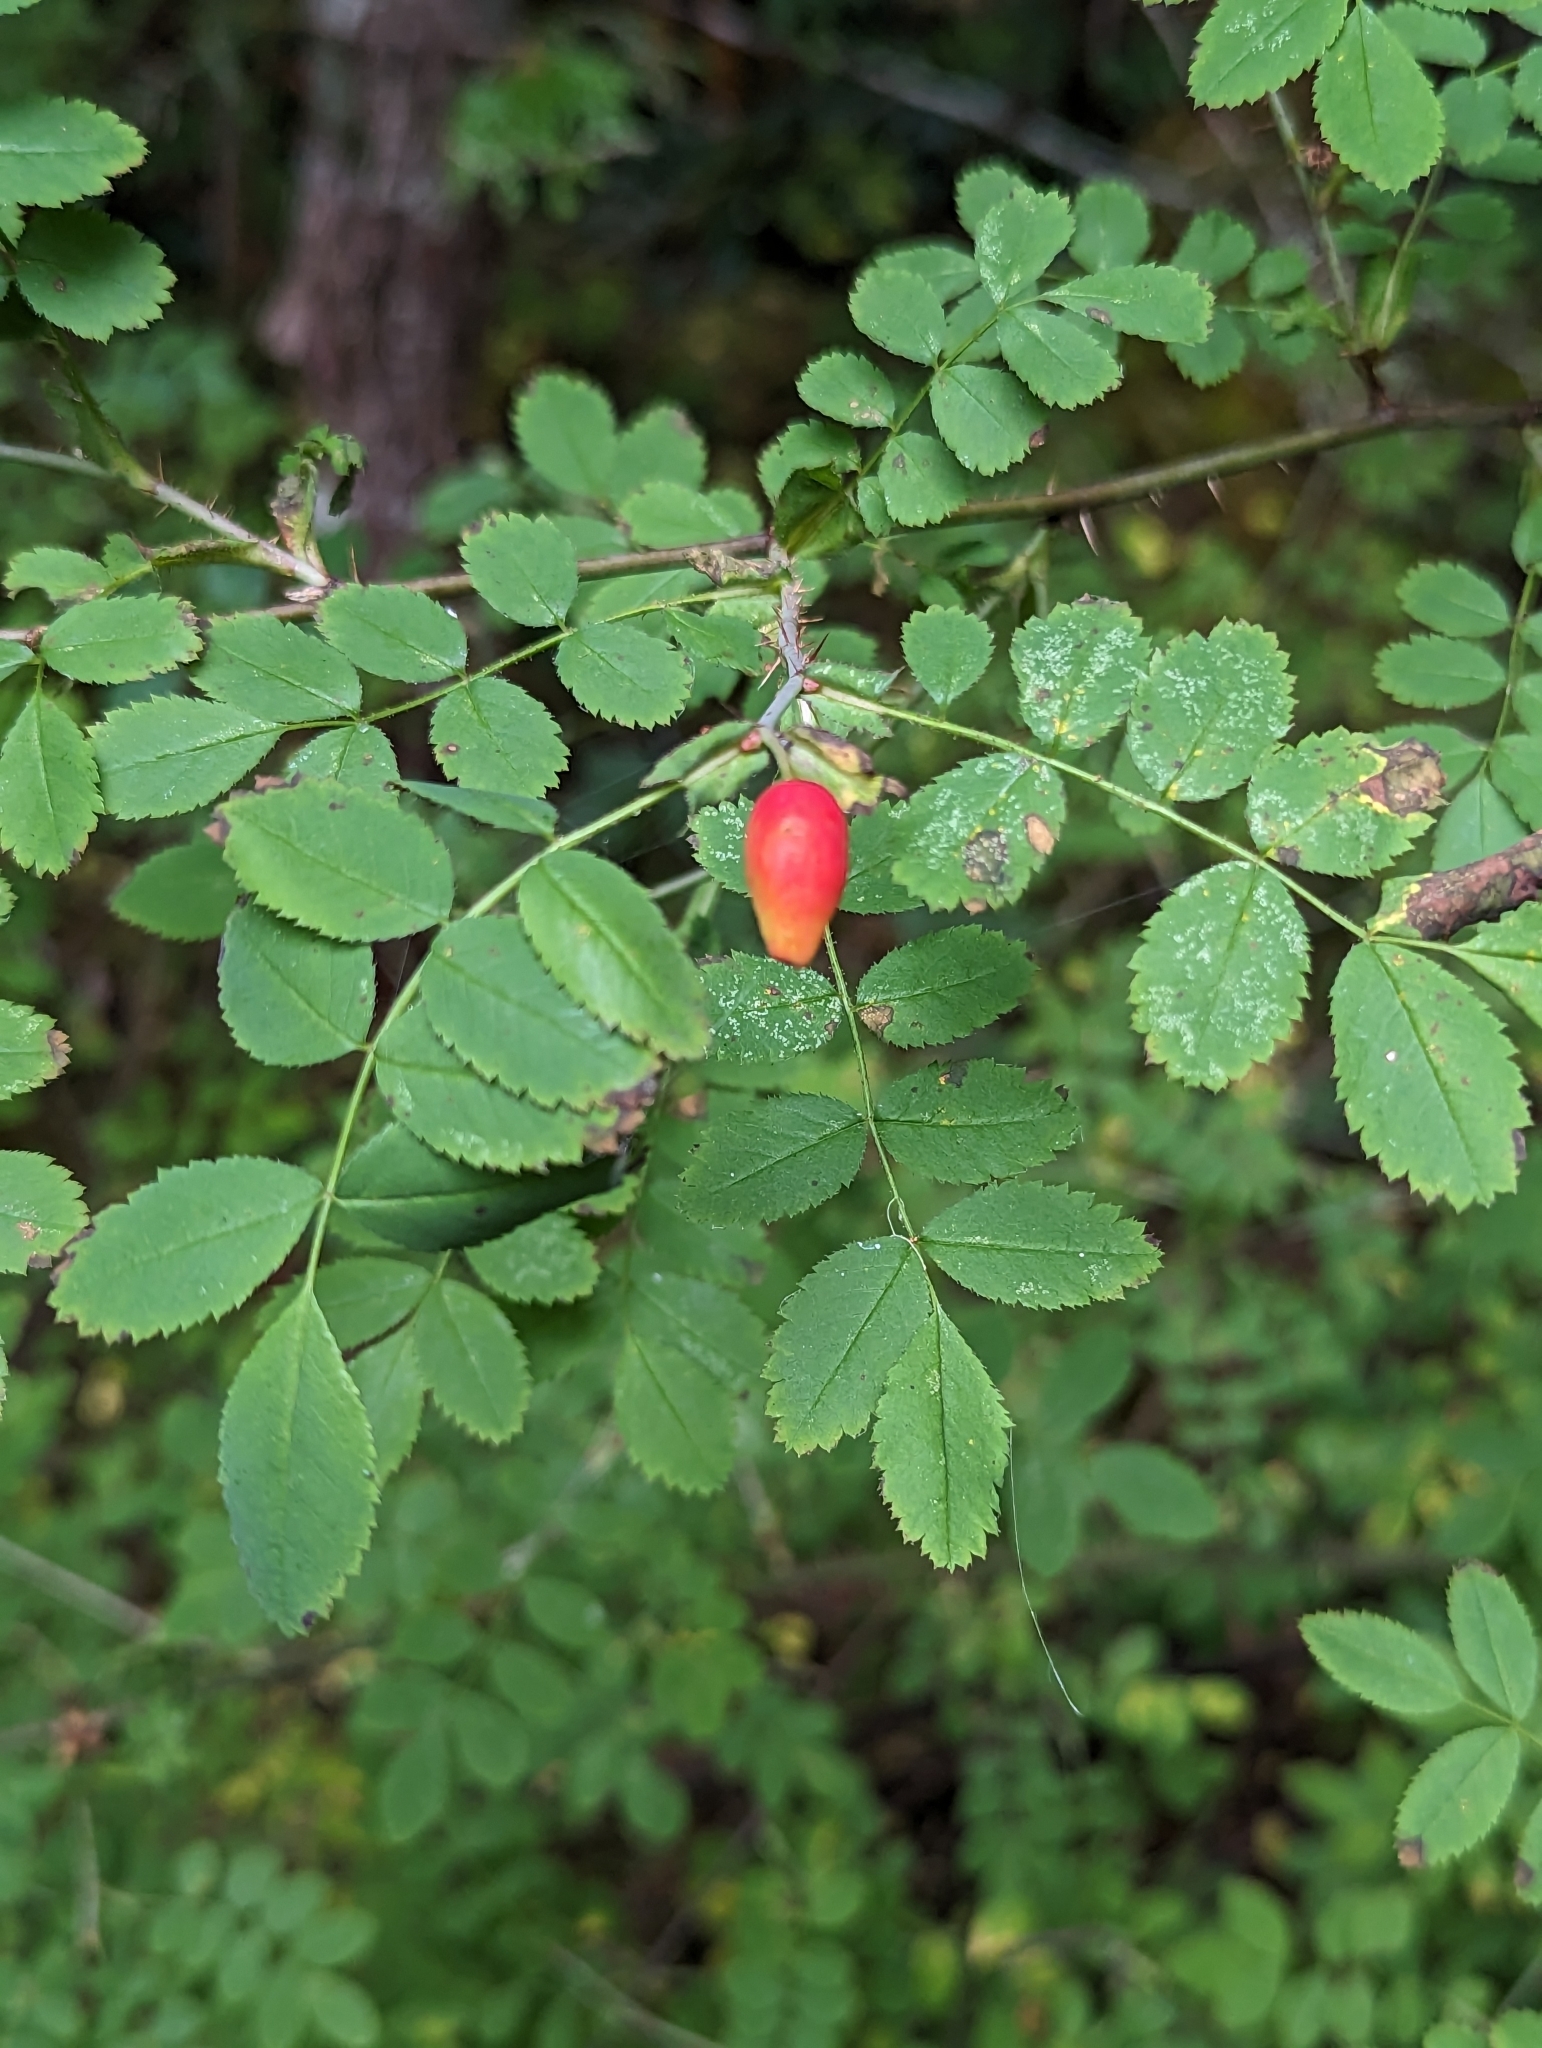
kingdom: Plantae
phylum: Tracheophyta
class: Magnoliopsida
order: Rosales
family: Rosaceae
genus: Rosa
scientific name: Rosa gymnocarpa
